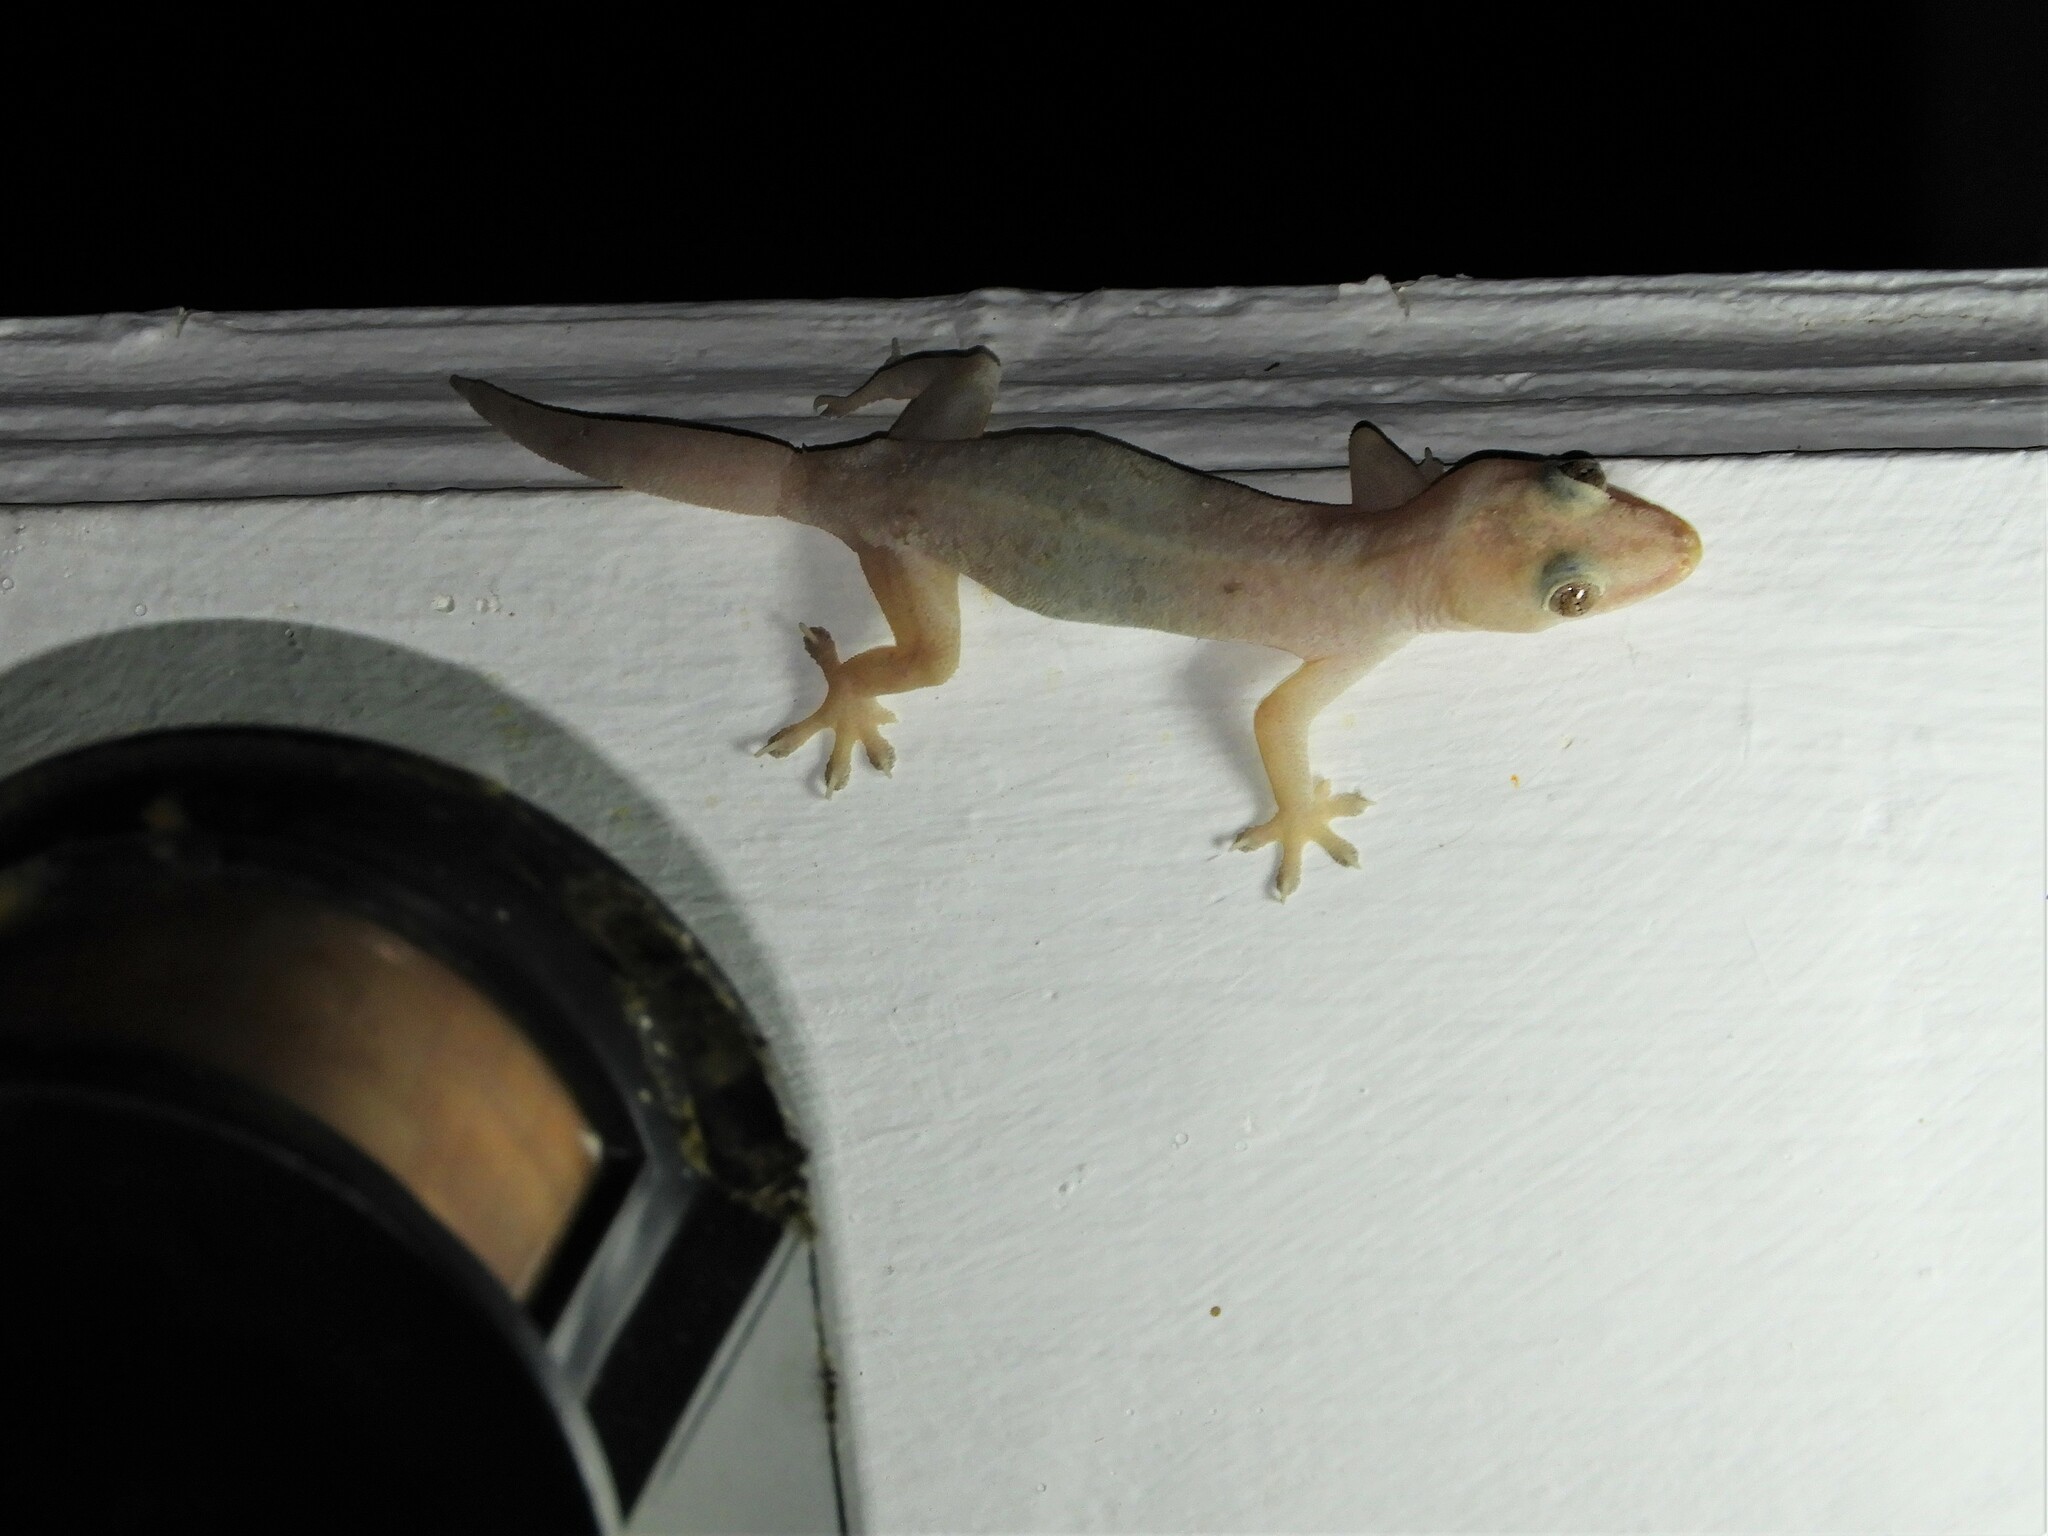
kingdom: Animalia
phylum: Chordata
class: Squamata
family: Gekkonidae
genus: Hemidactylus
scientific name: Hemidactylus frenatus
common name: Common house gecko
